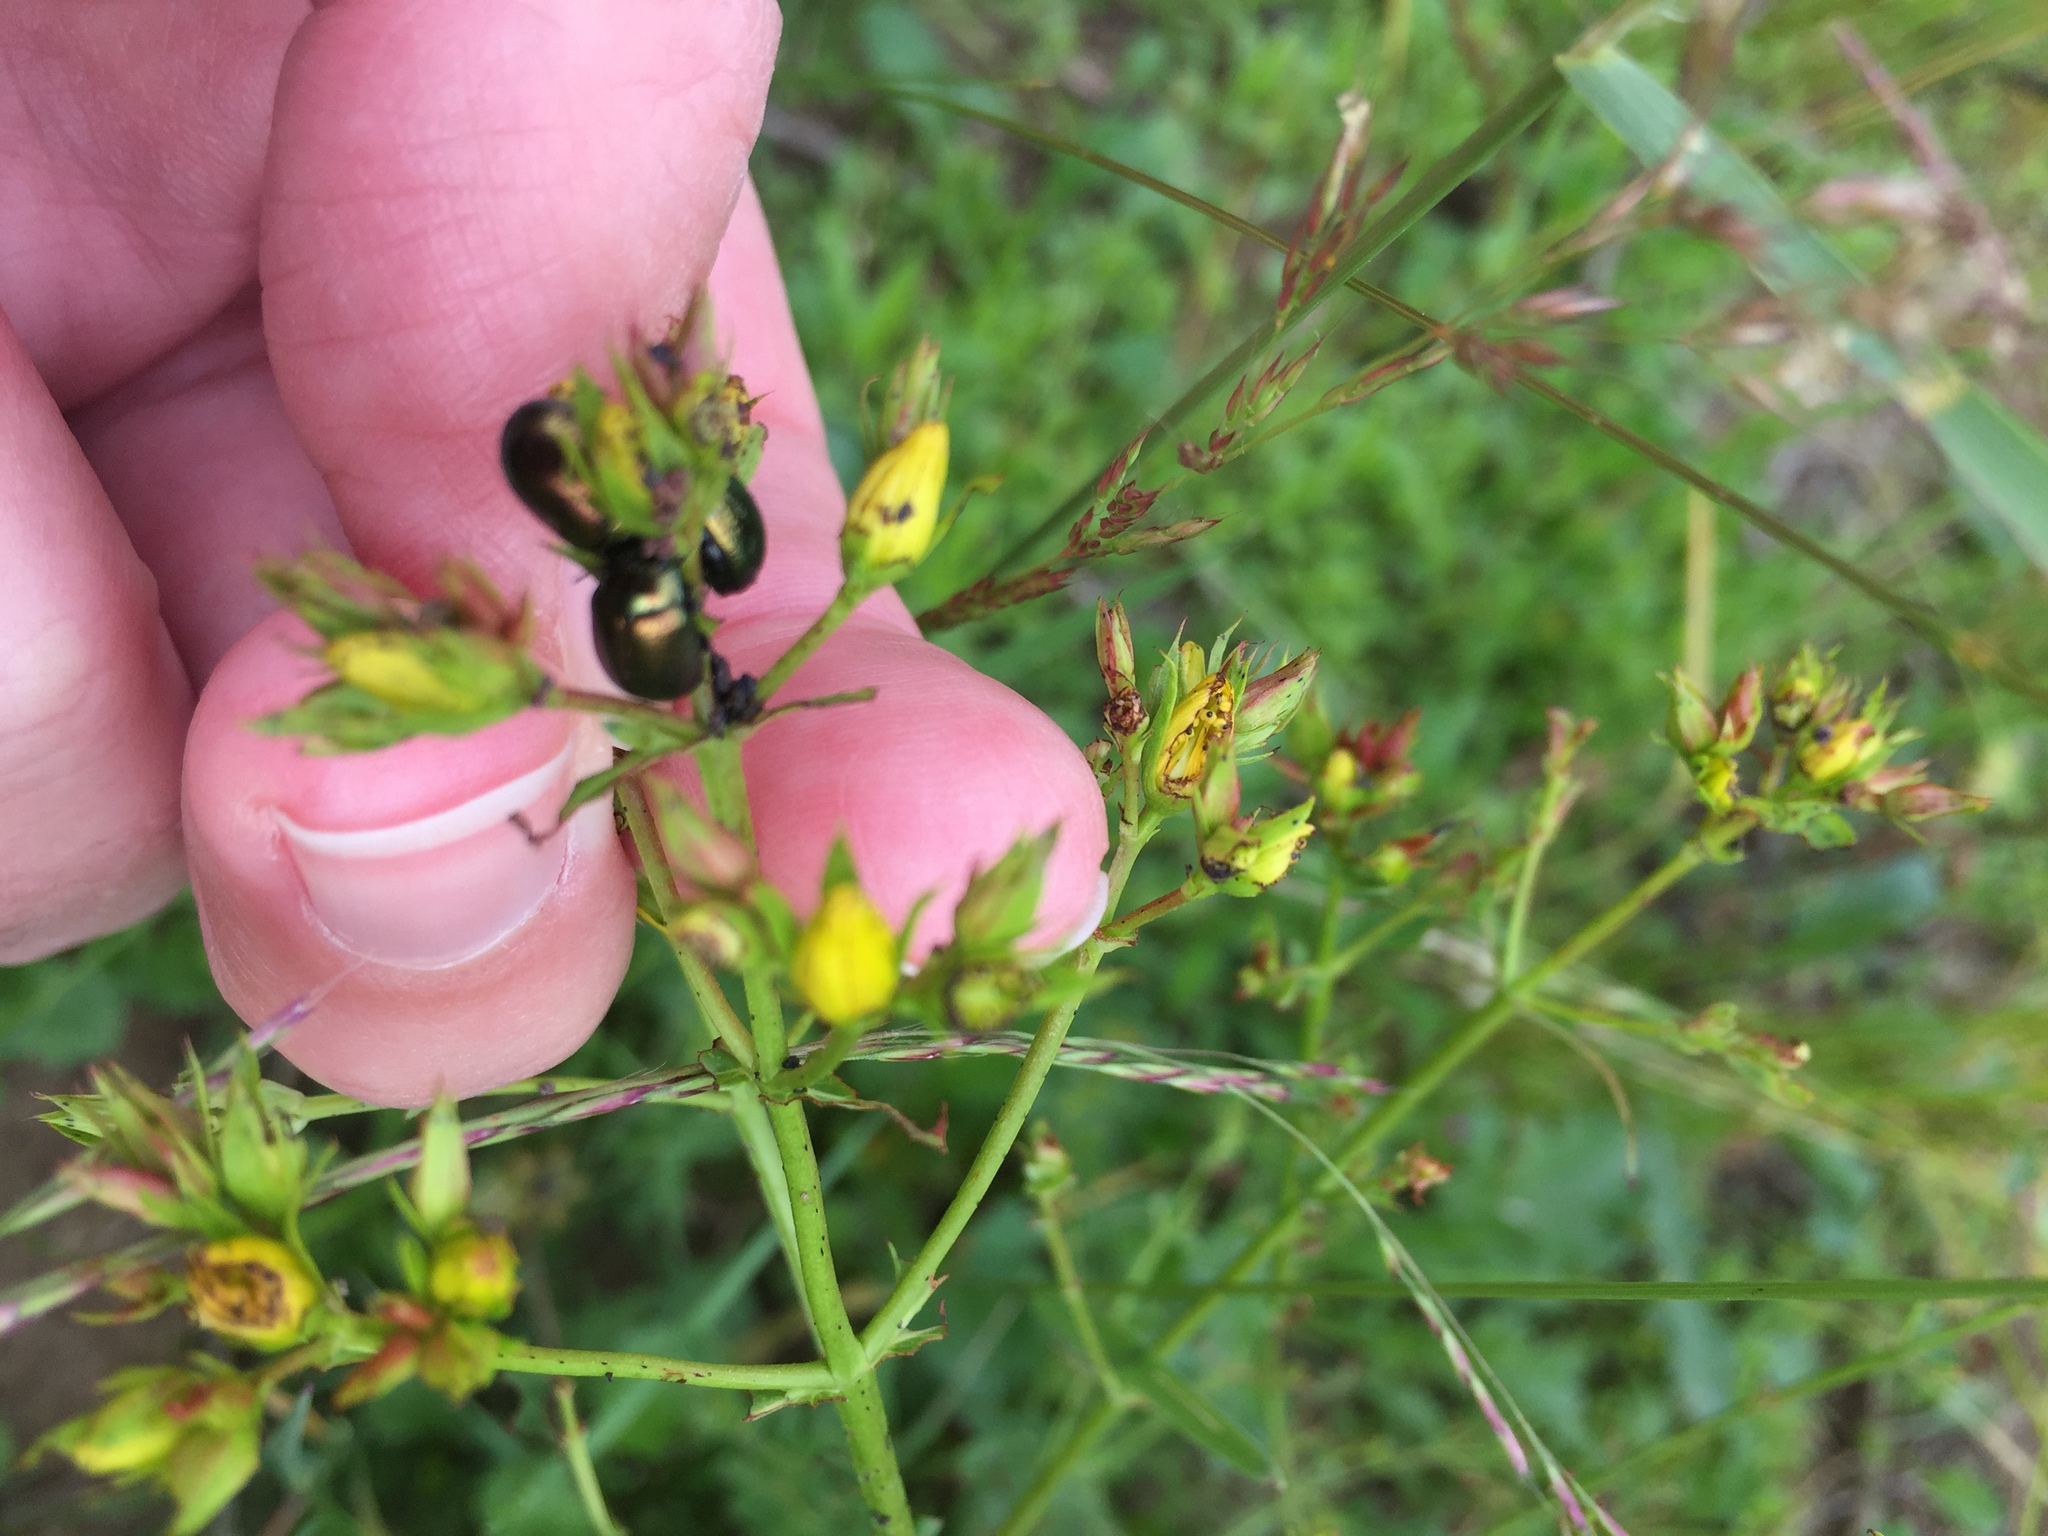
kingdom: Animalia
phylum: Arthropoda
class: Insecta
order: Coleoptera
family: Chrysomelidae
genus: Chrysolina
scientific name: Chrysolina quadrigemina
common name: Leaf beetle
